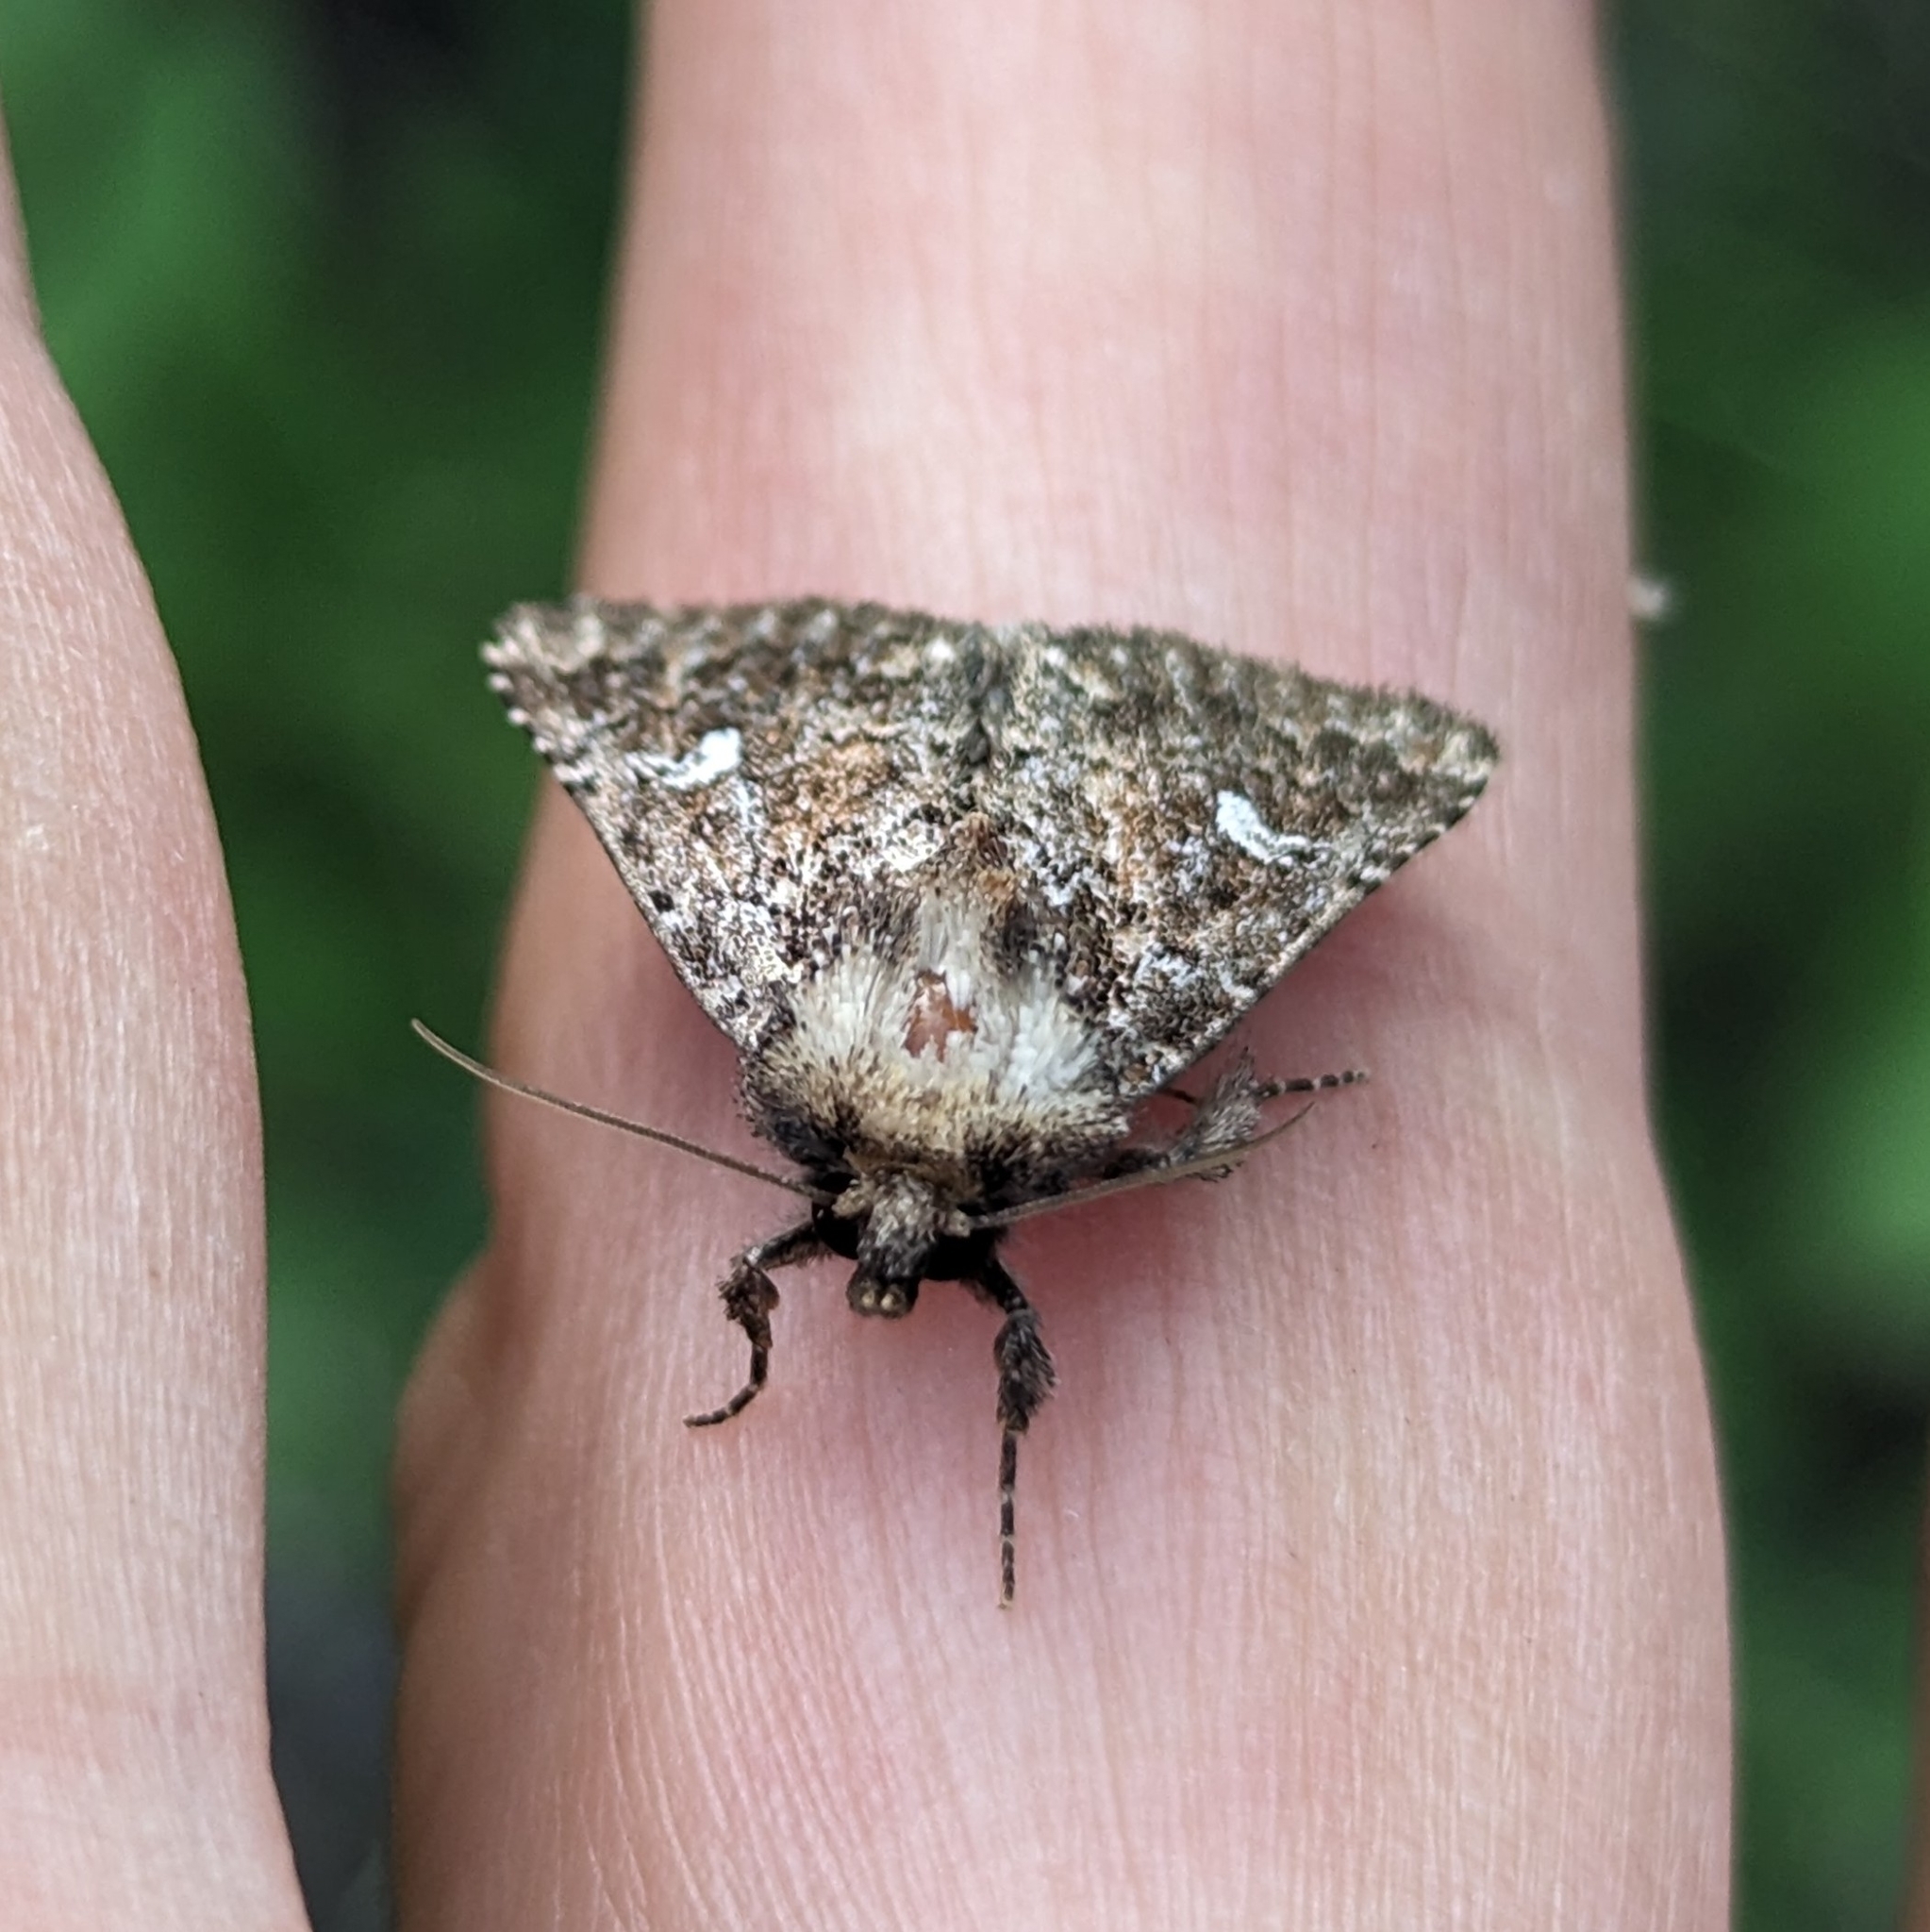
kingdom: Animalia
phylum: Arthropoda
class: Insecta
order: Lepidoptera
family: Noctuidae
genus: Properigea
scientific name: Properigea albimacula
